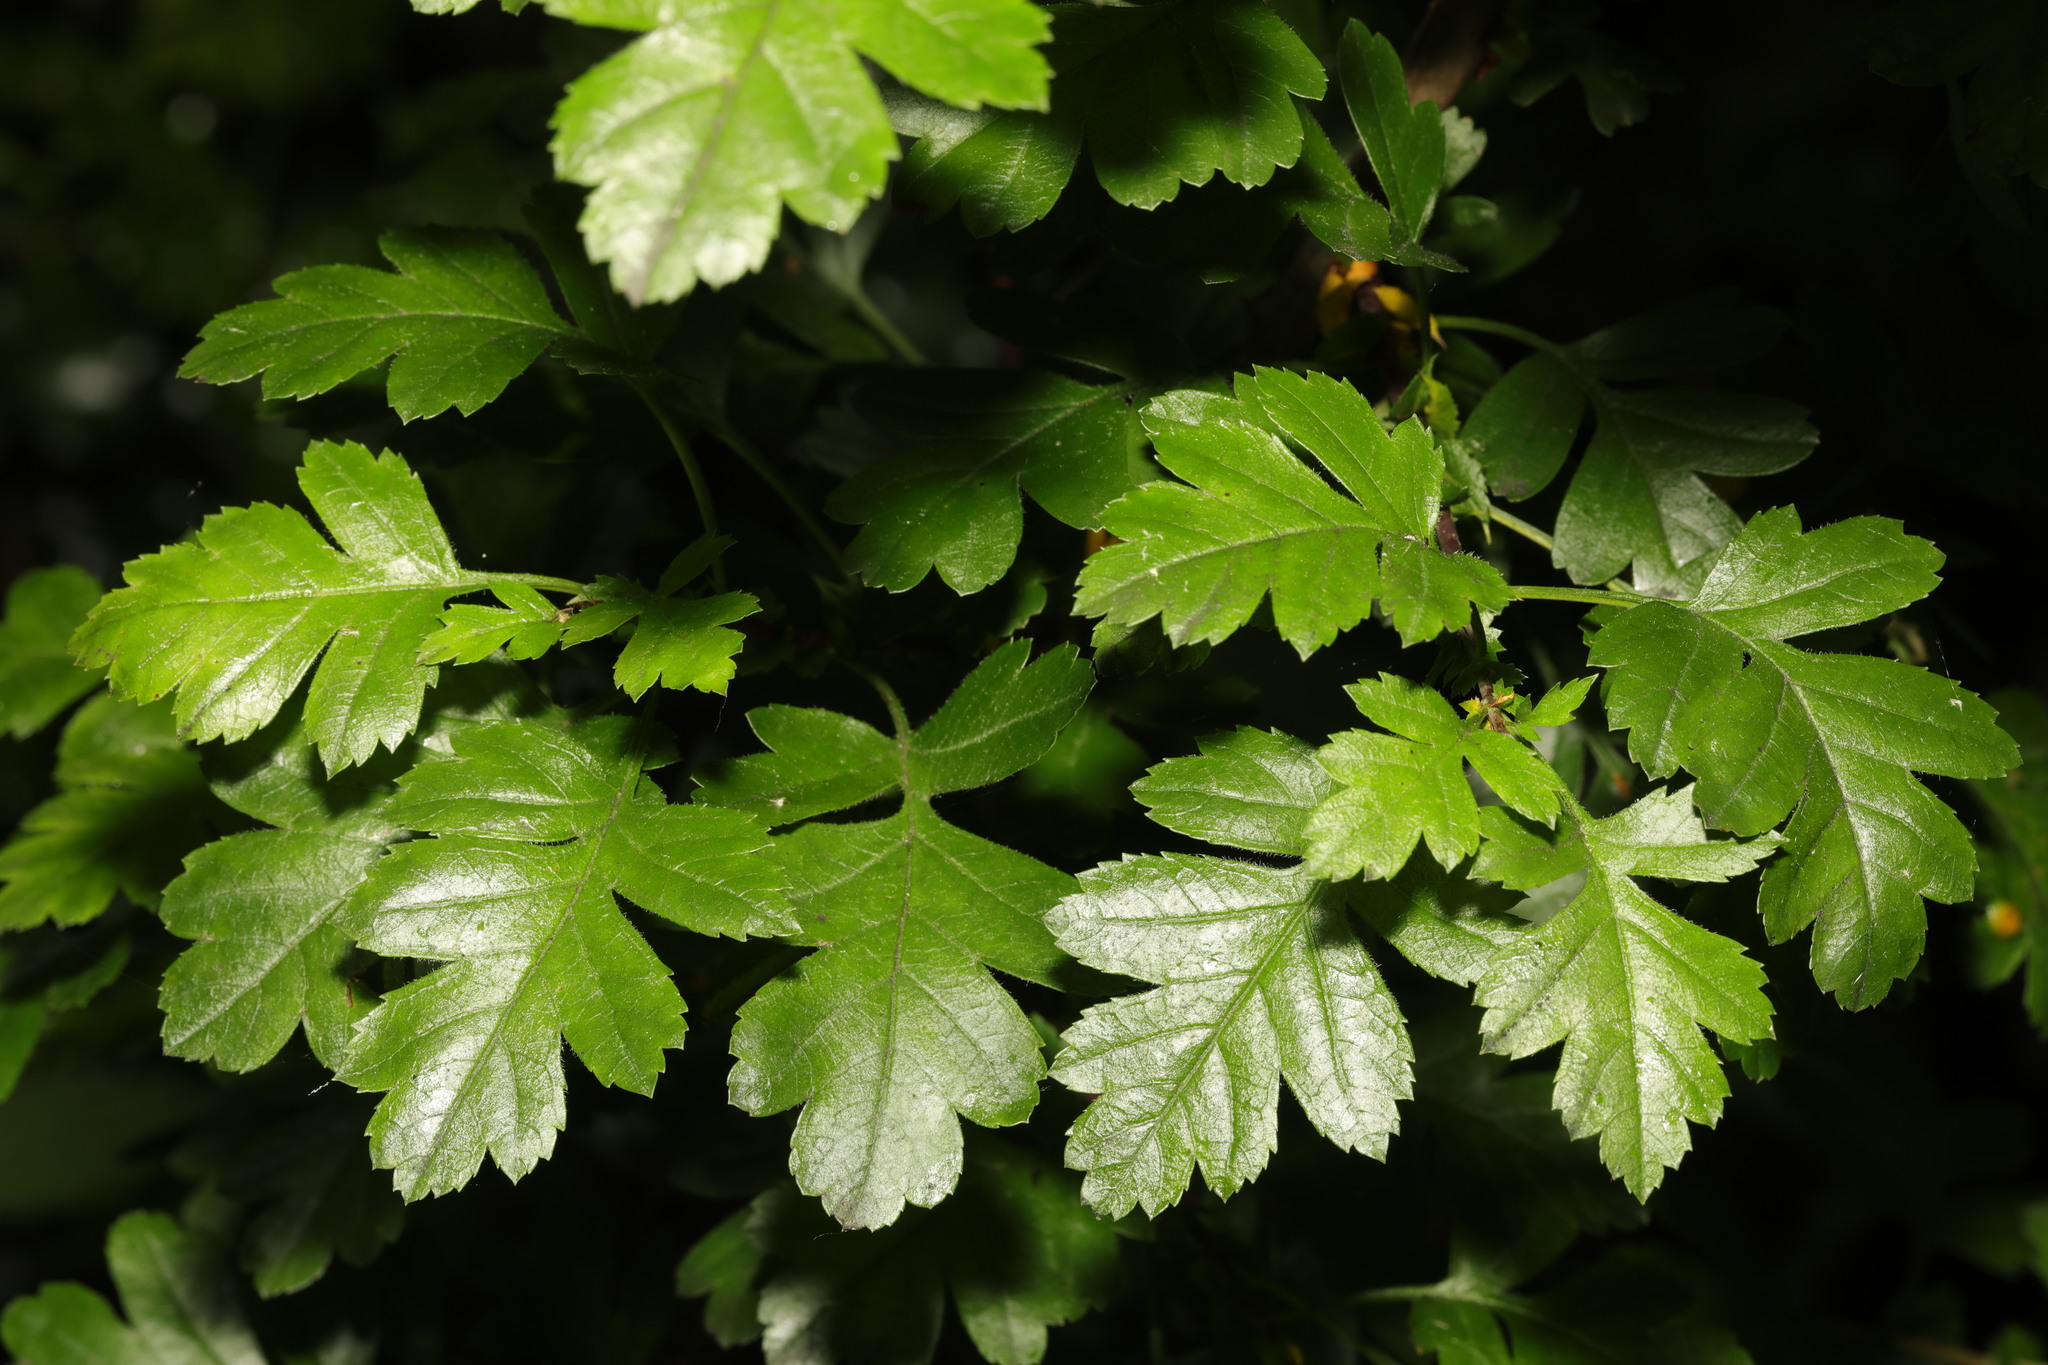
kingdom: Plantae
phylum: Tracheophyta
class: Magnoliopsida
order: Rosales
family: Rosaceae
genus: Crataegus
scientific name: Crataegus monogyna
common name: Hawthorn
